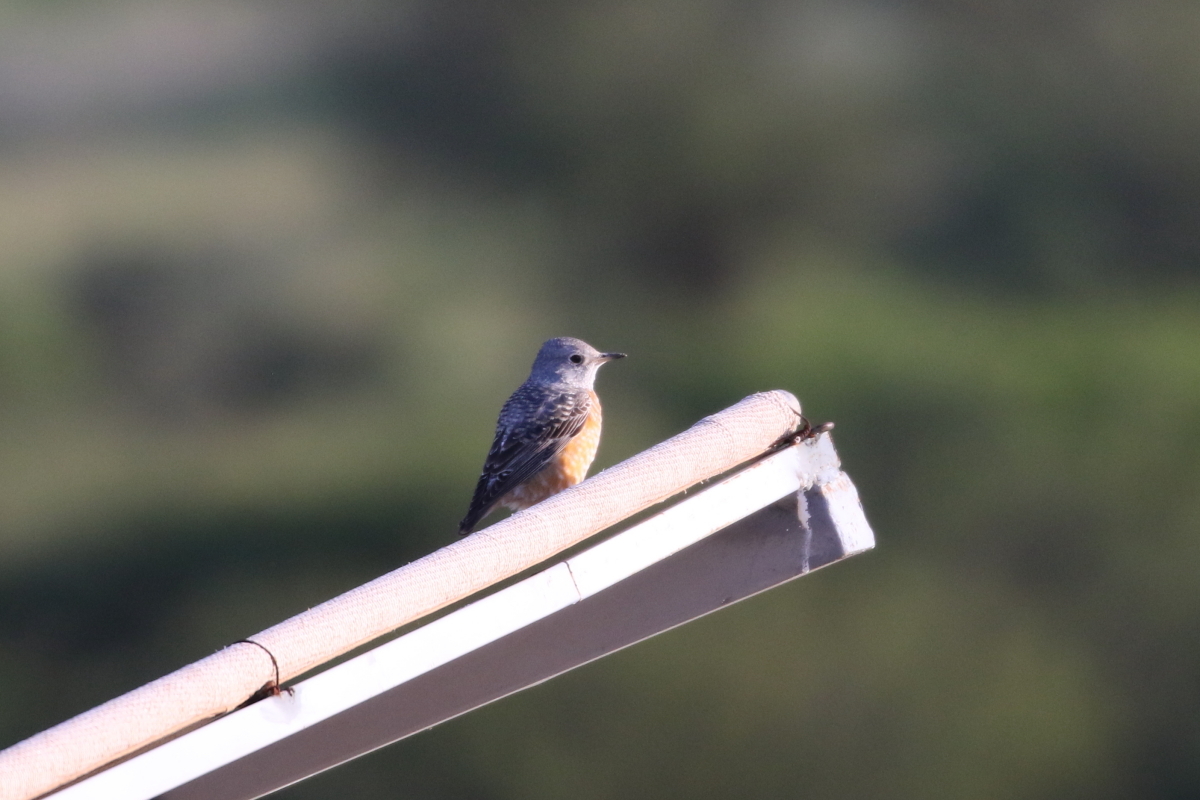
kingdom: Animalia
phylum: Chordata
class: Aves
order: Passeriformes
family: Muscicapidae
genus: Monticola
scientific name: Monticola saxatilis
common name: Rufous-tailed rock thrush
